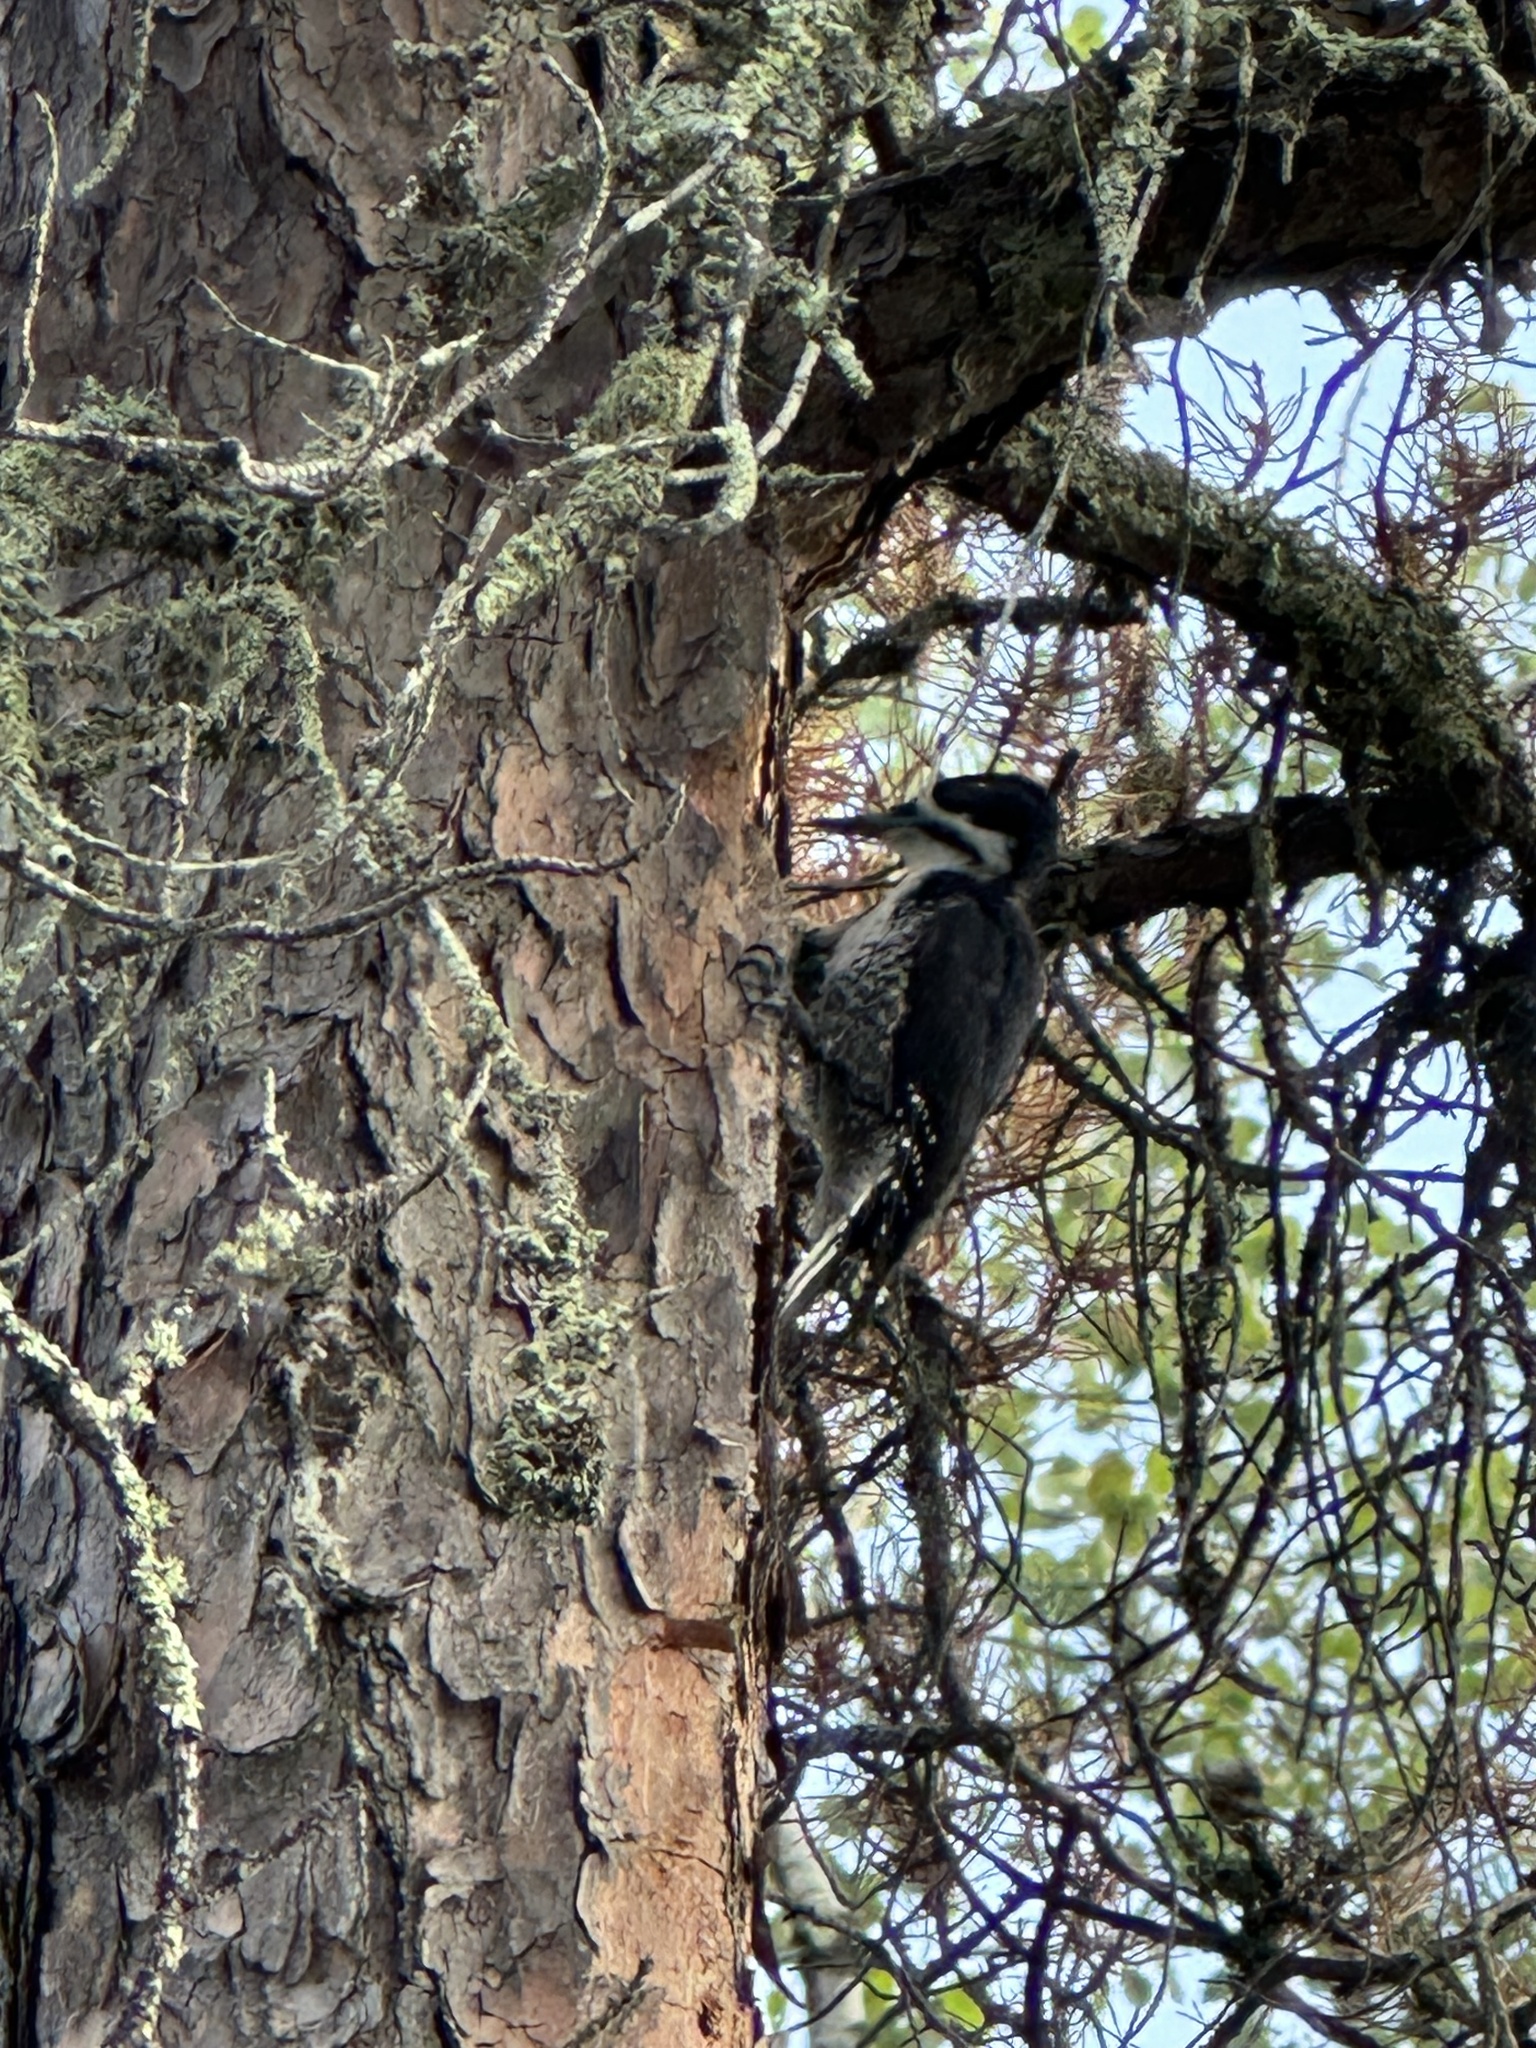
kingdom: Animalia
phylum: Chordata
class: Aves
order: Piciformes
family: Picidae
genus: Picoides
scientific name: Picoides arcticus
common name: Black-backed woodpecker
